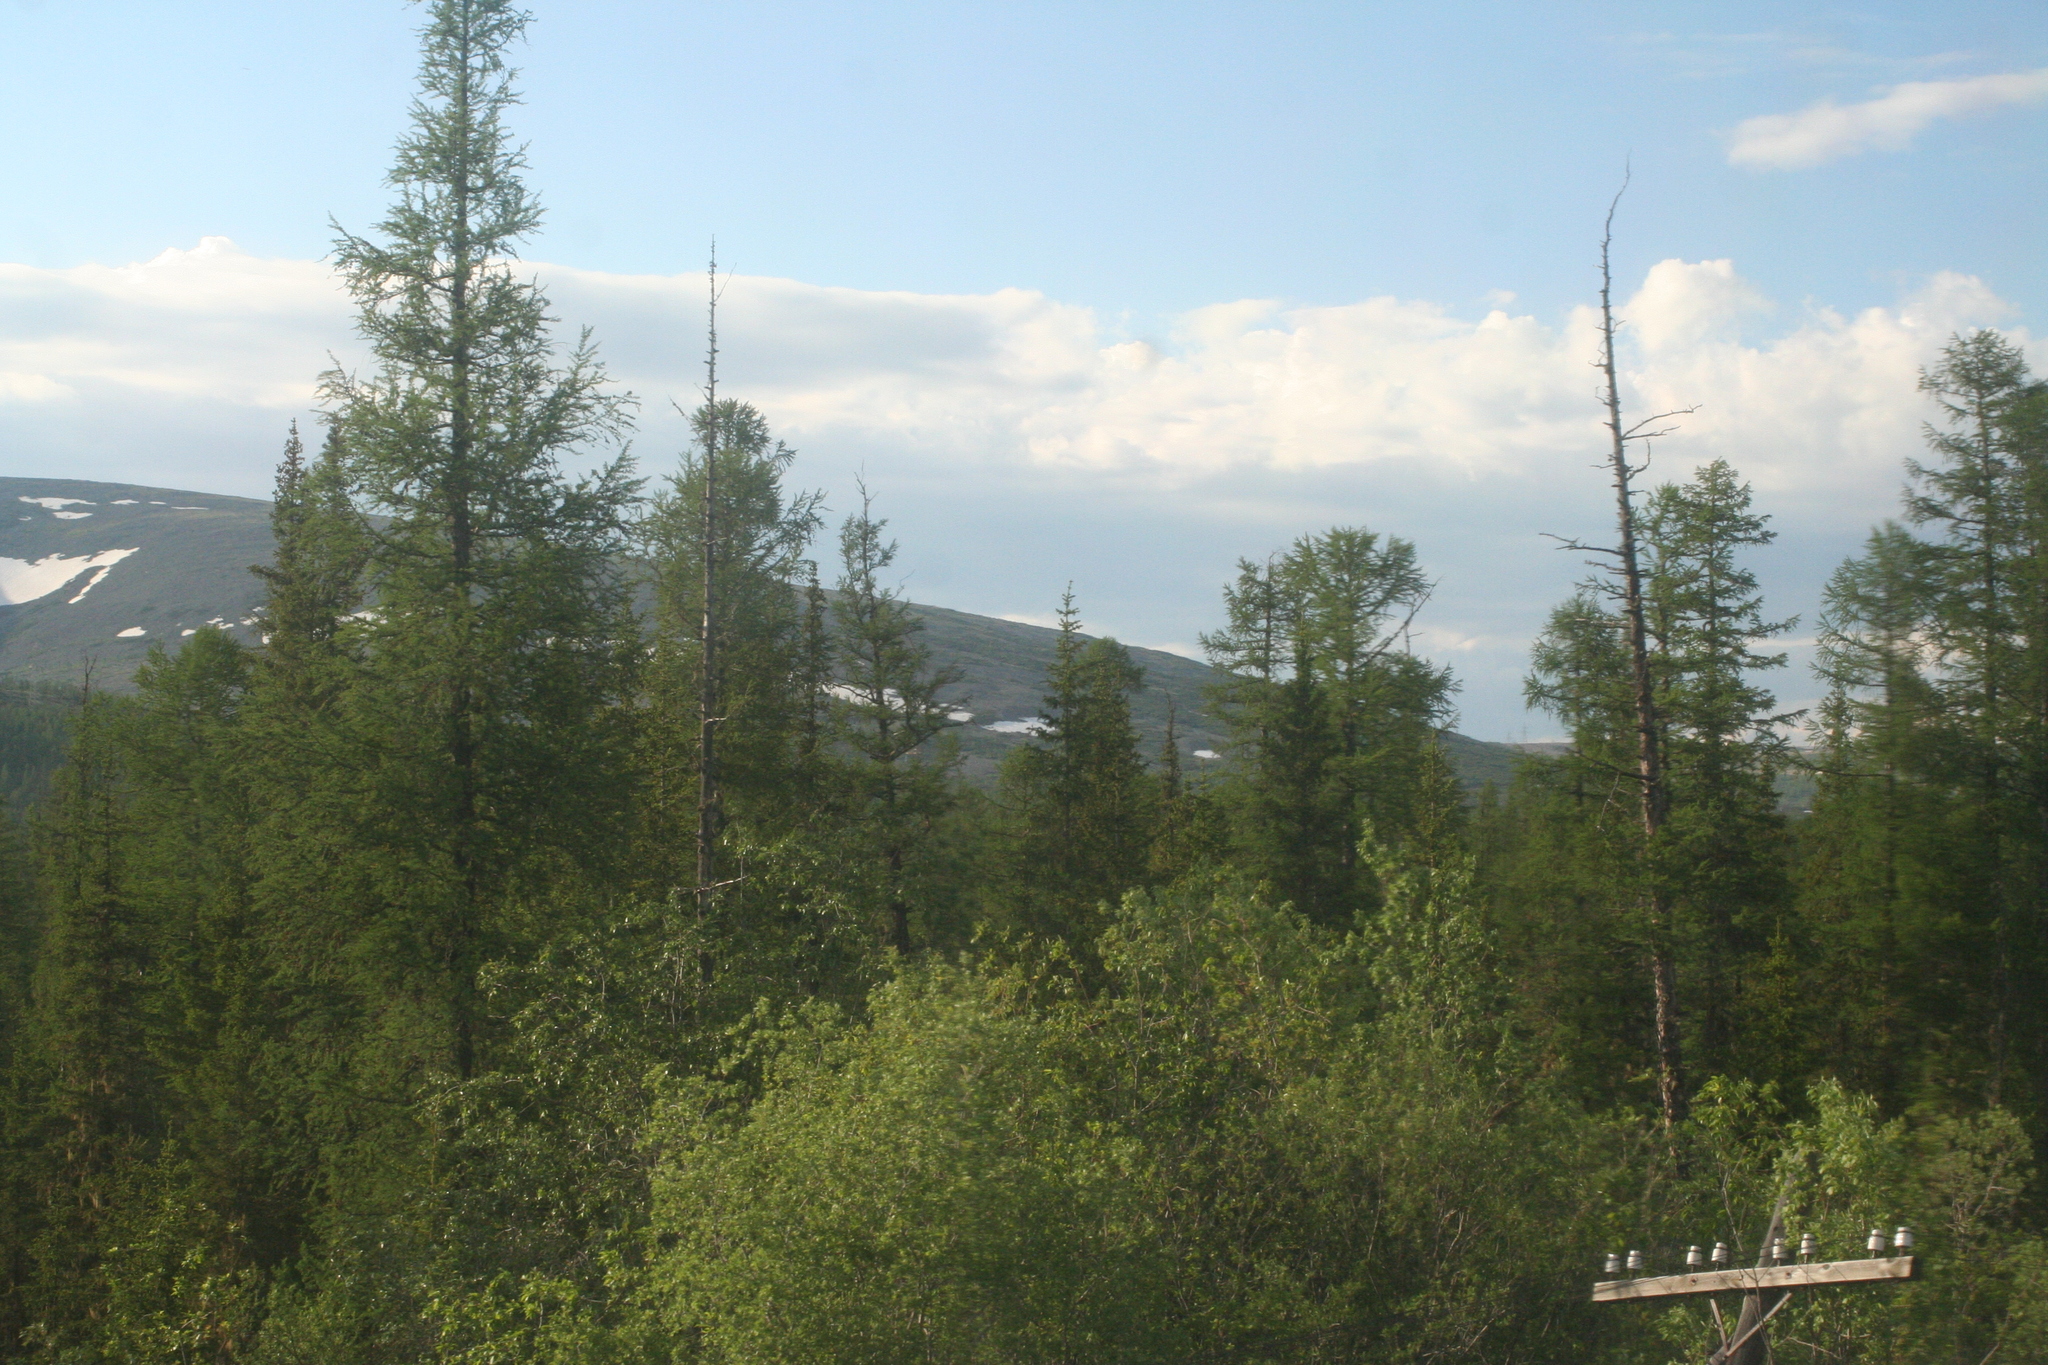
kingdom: Plantae
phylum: Tracheophyta
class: Pinopsida
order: Pinales
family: Pinaceae
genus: Larix
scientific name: Larix gmelinii
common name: Dahurian larch
